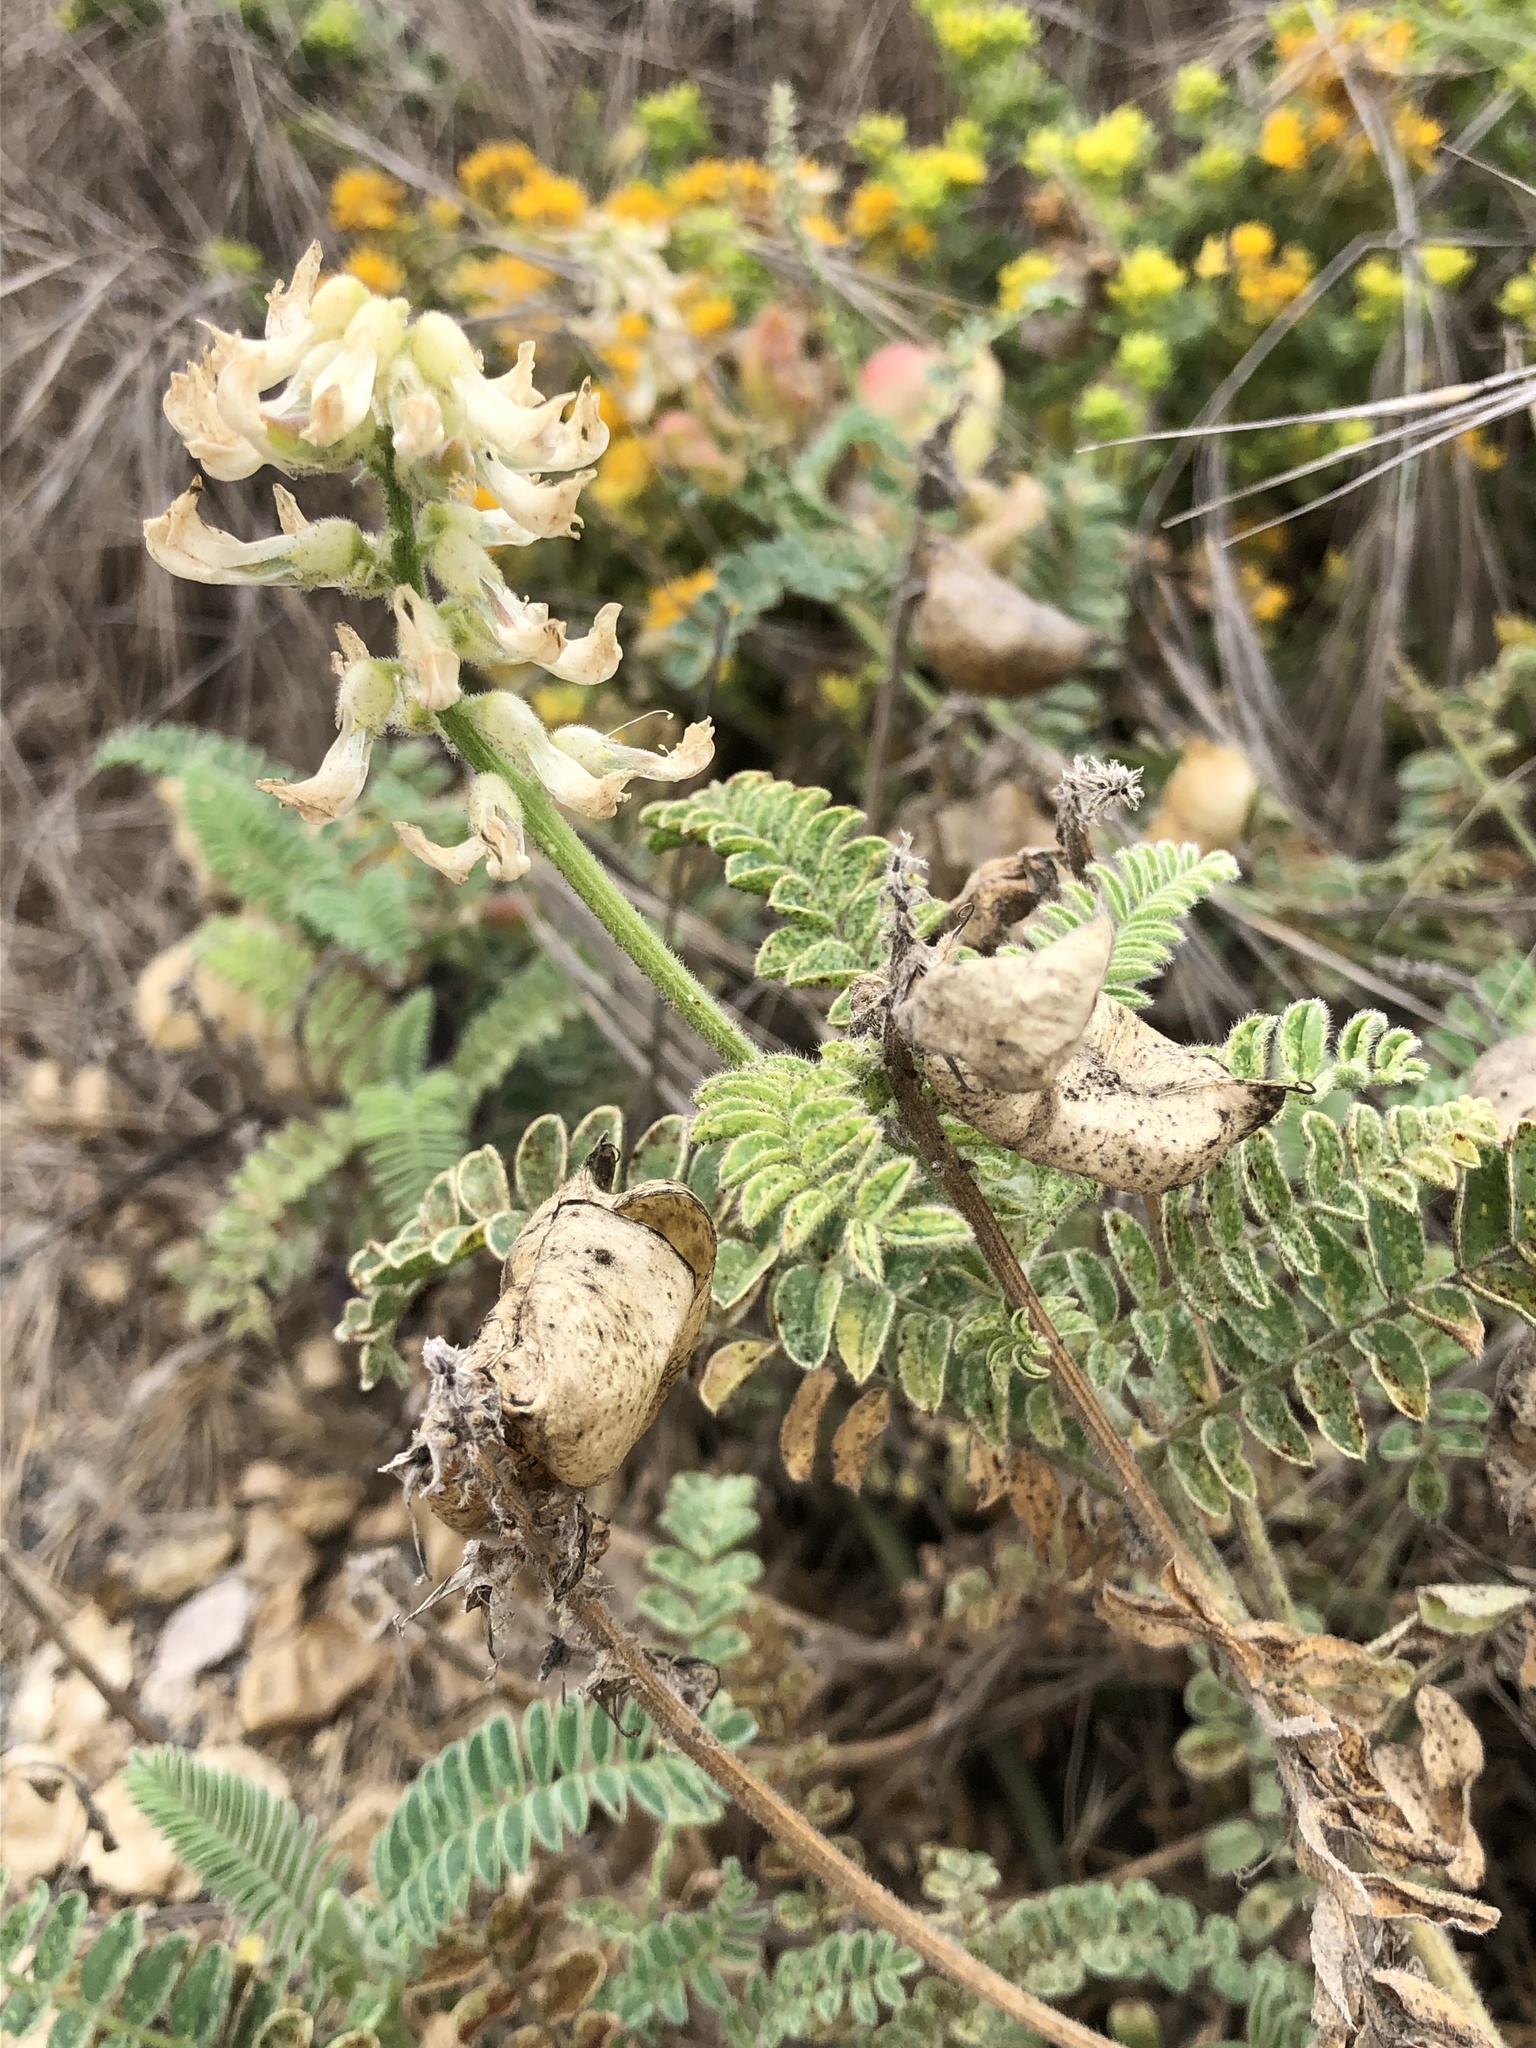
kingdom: Plantae
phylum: Tracheophyta
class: Magnoliopsida
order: Fabales
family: Fabaceae
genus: Astragalus
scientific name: Astragalus nuttallii
